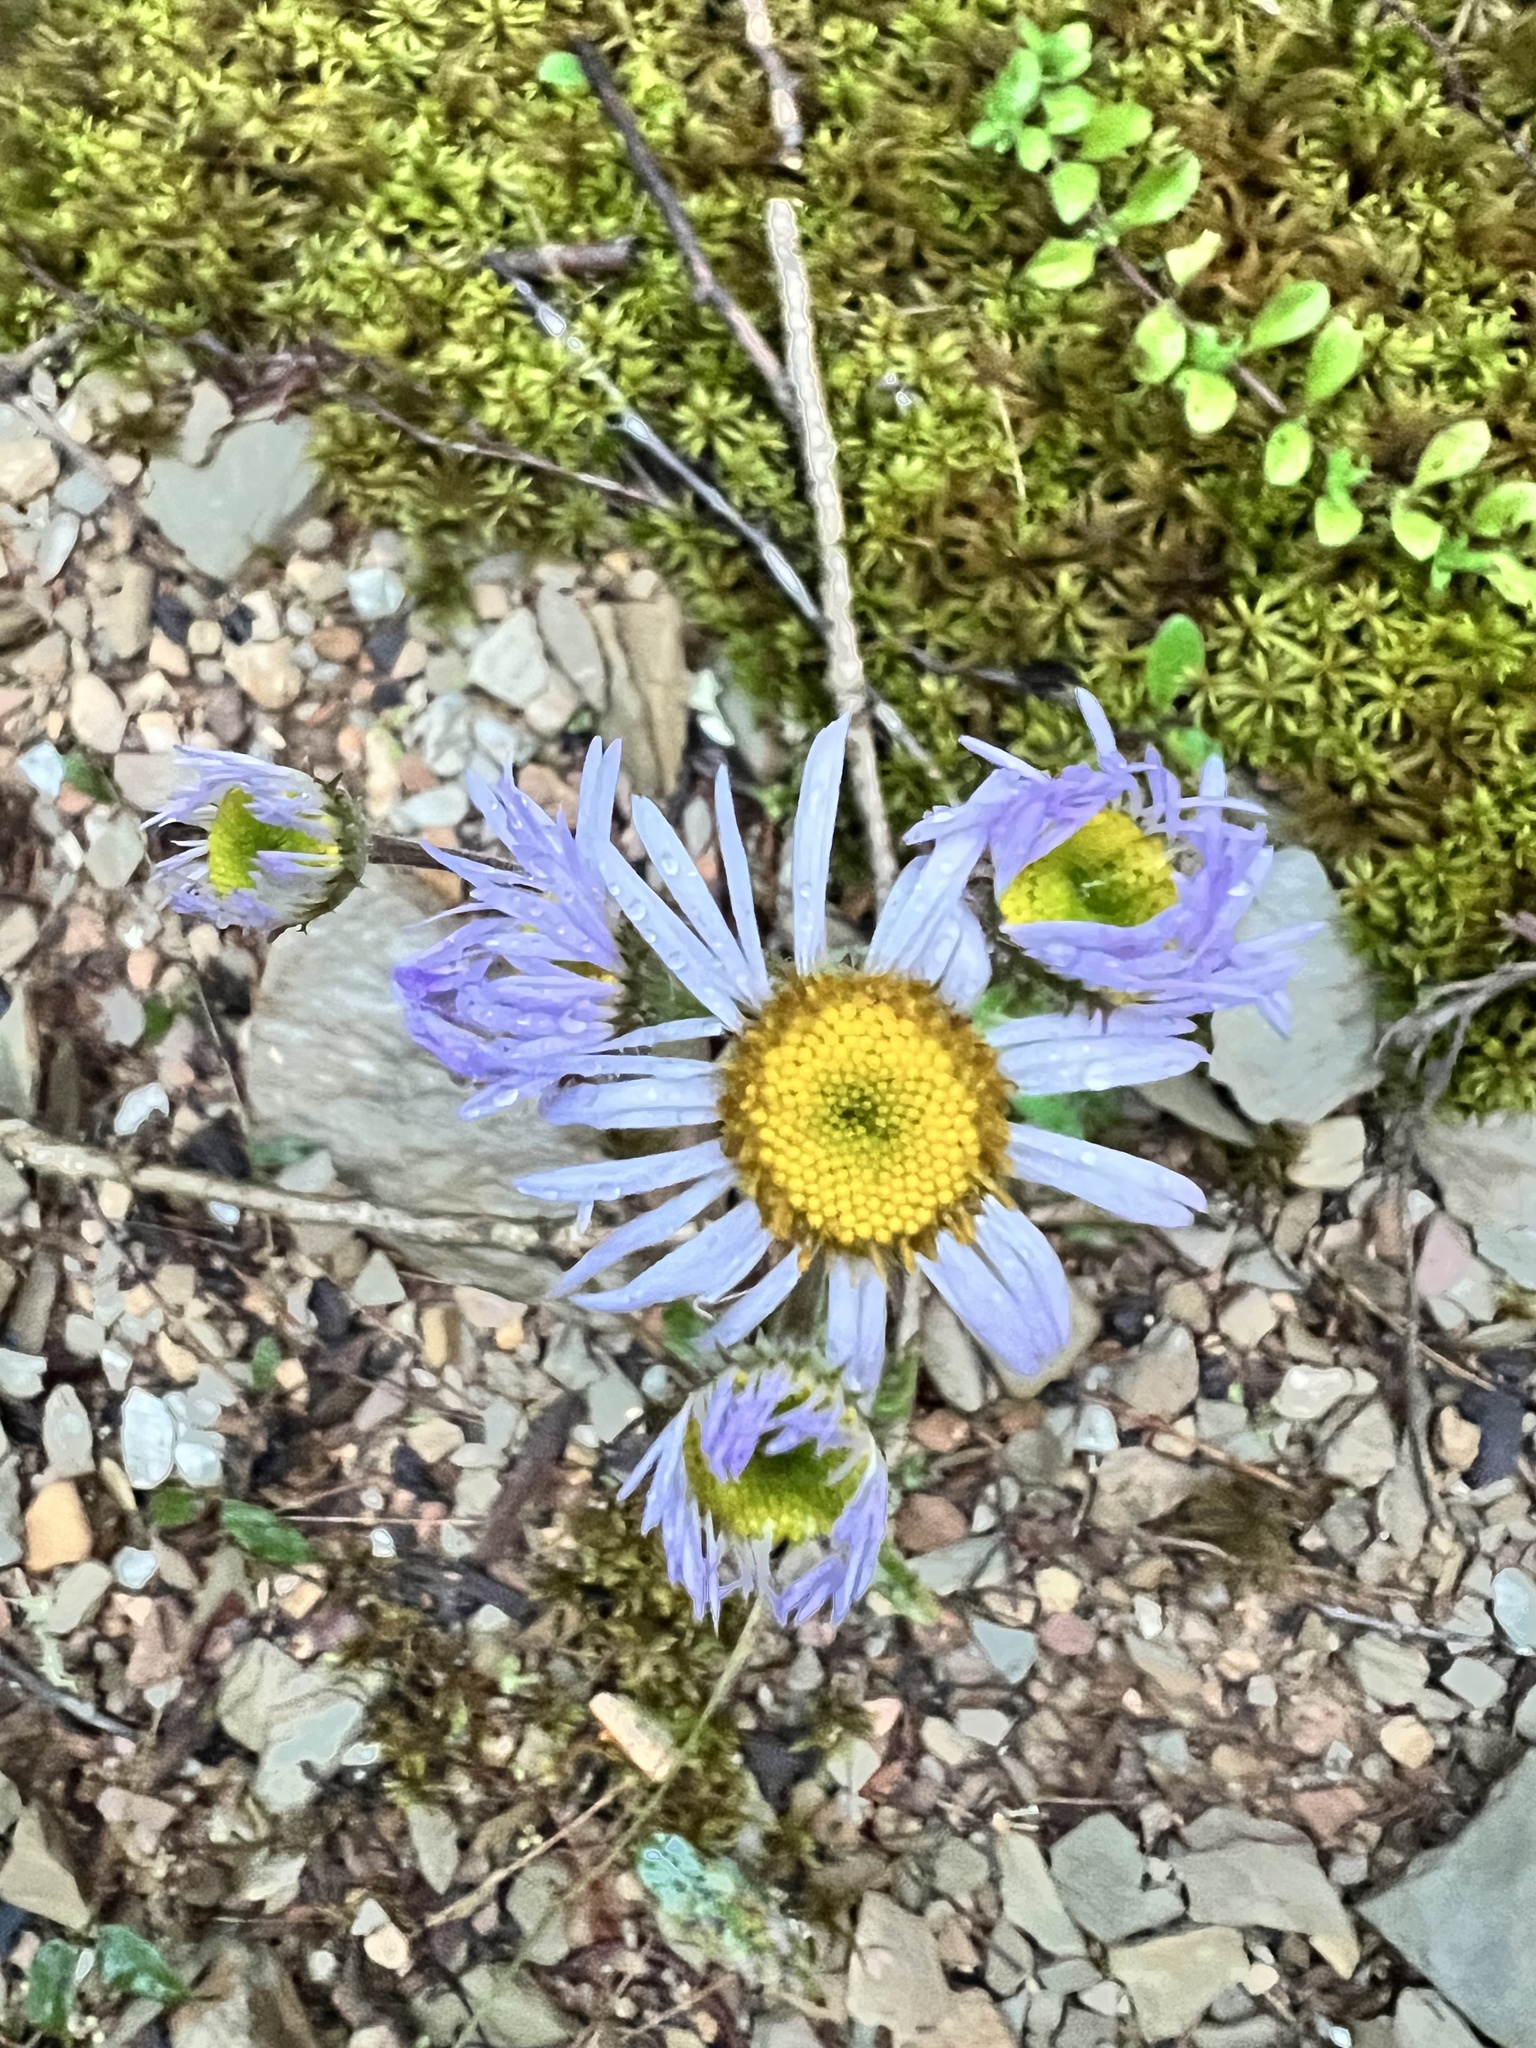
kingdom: Plantae
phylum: Tracheophyta
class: Magnoliopsida
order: Asterales
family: Asteraceae
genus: Erigeron
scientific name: Erigeron pulchellus
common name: Hairy fleabane
